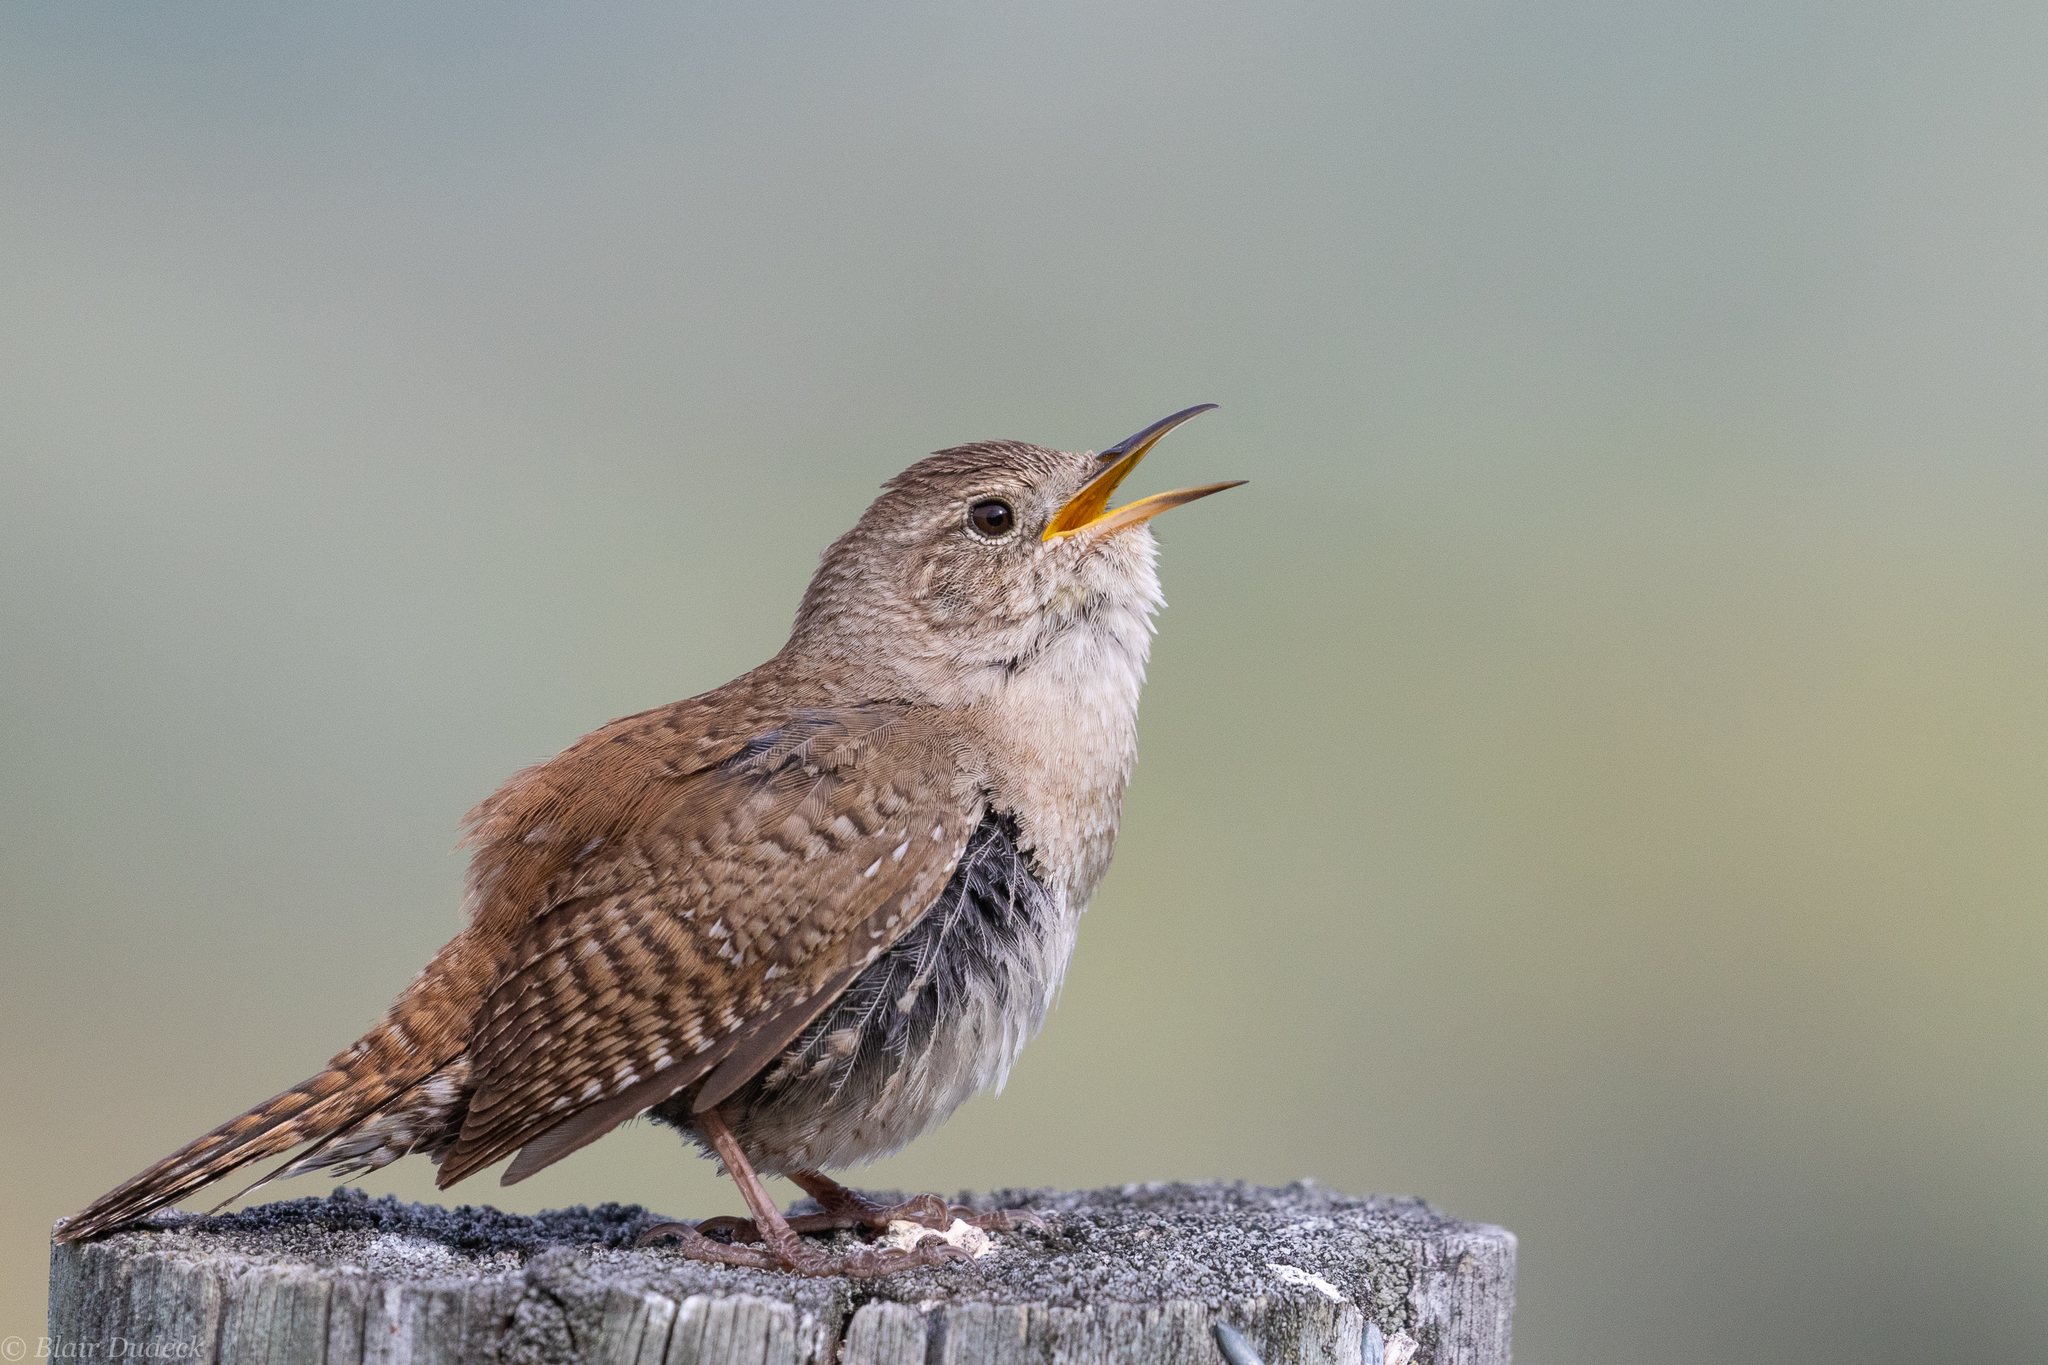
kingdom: Animalia
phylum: Chordata
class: Aves
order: Passeriformes
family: Troglodytidae
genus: Troglodytes
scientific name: Troglodytes aedon
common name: House wren
